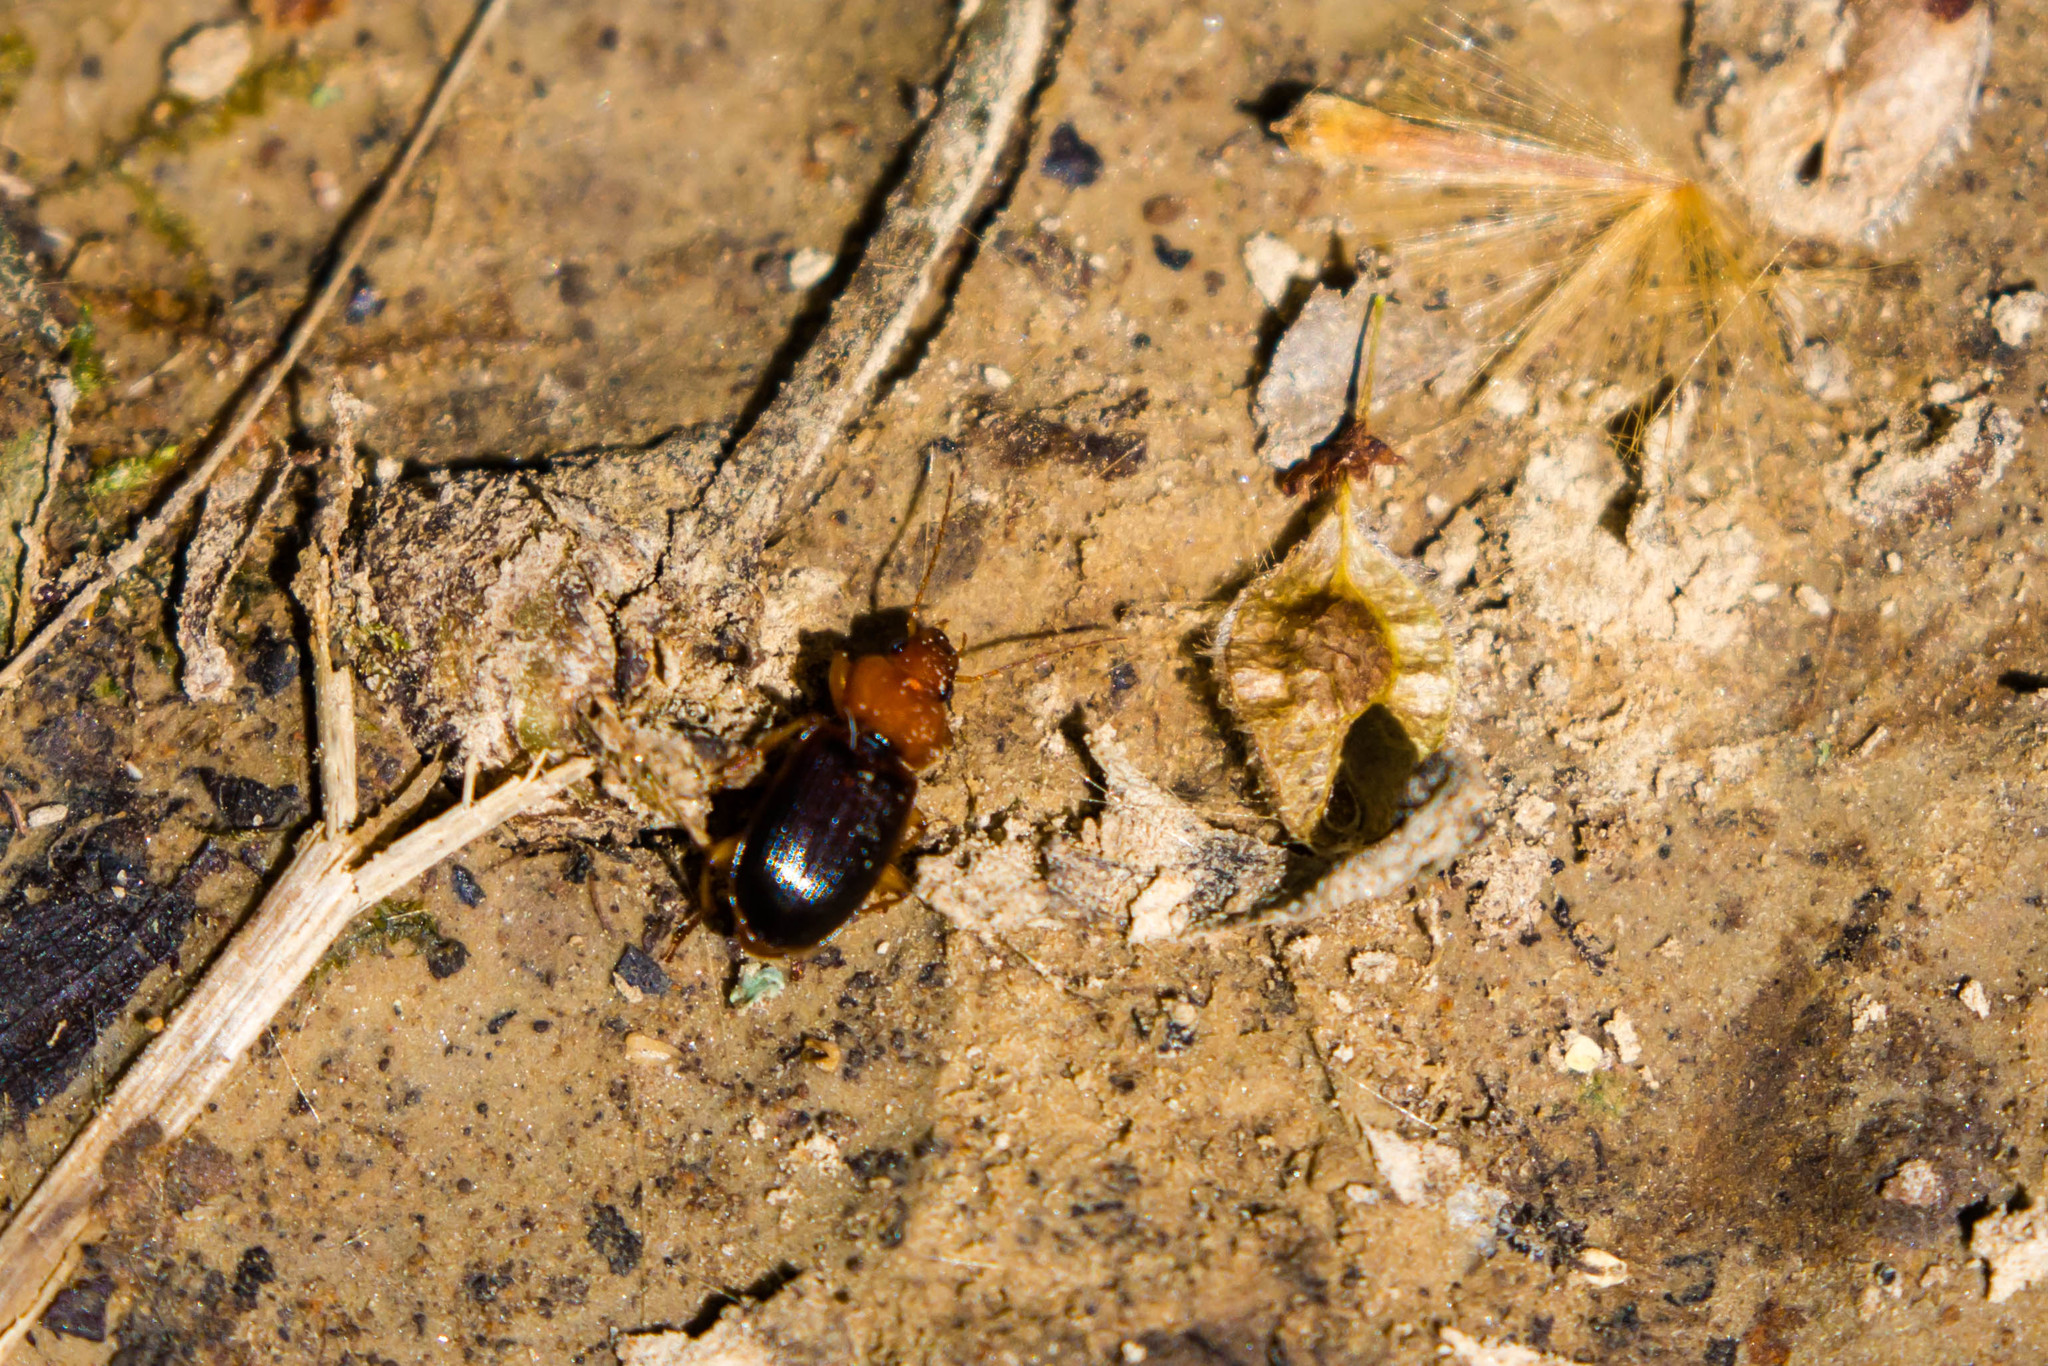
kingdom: Animalia
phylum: Arthropoda
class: Insecta
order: Coleoptera
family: Carabidae
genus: Amphasia
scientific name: Amphasia interstitialis
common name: Red-headed ground beetle
